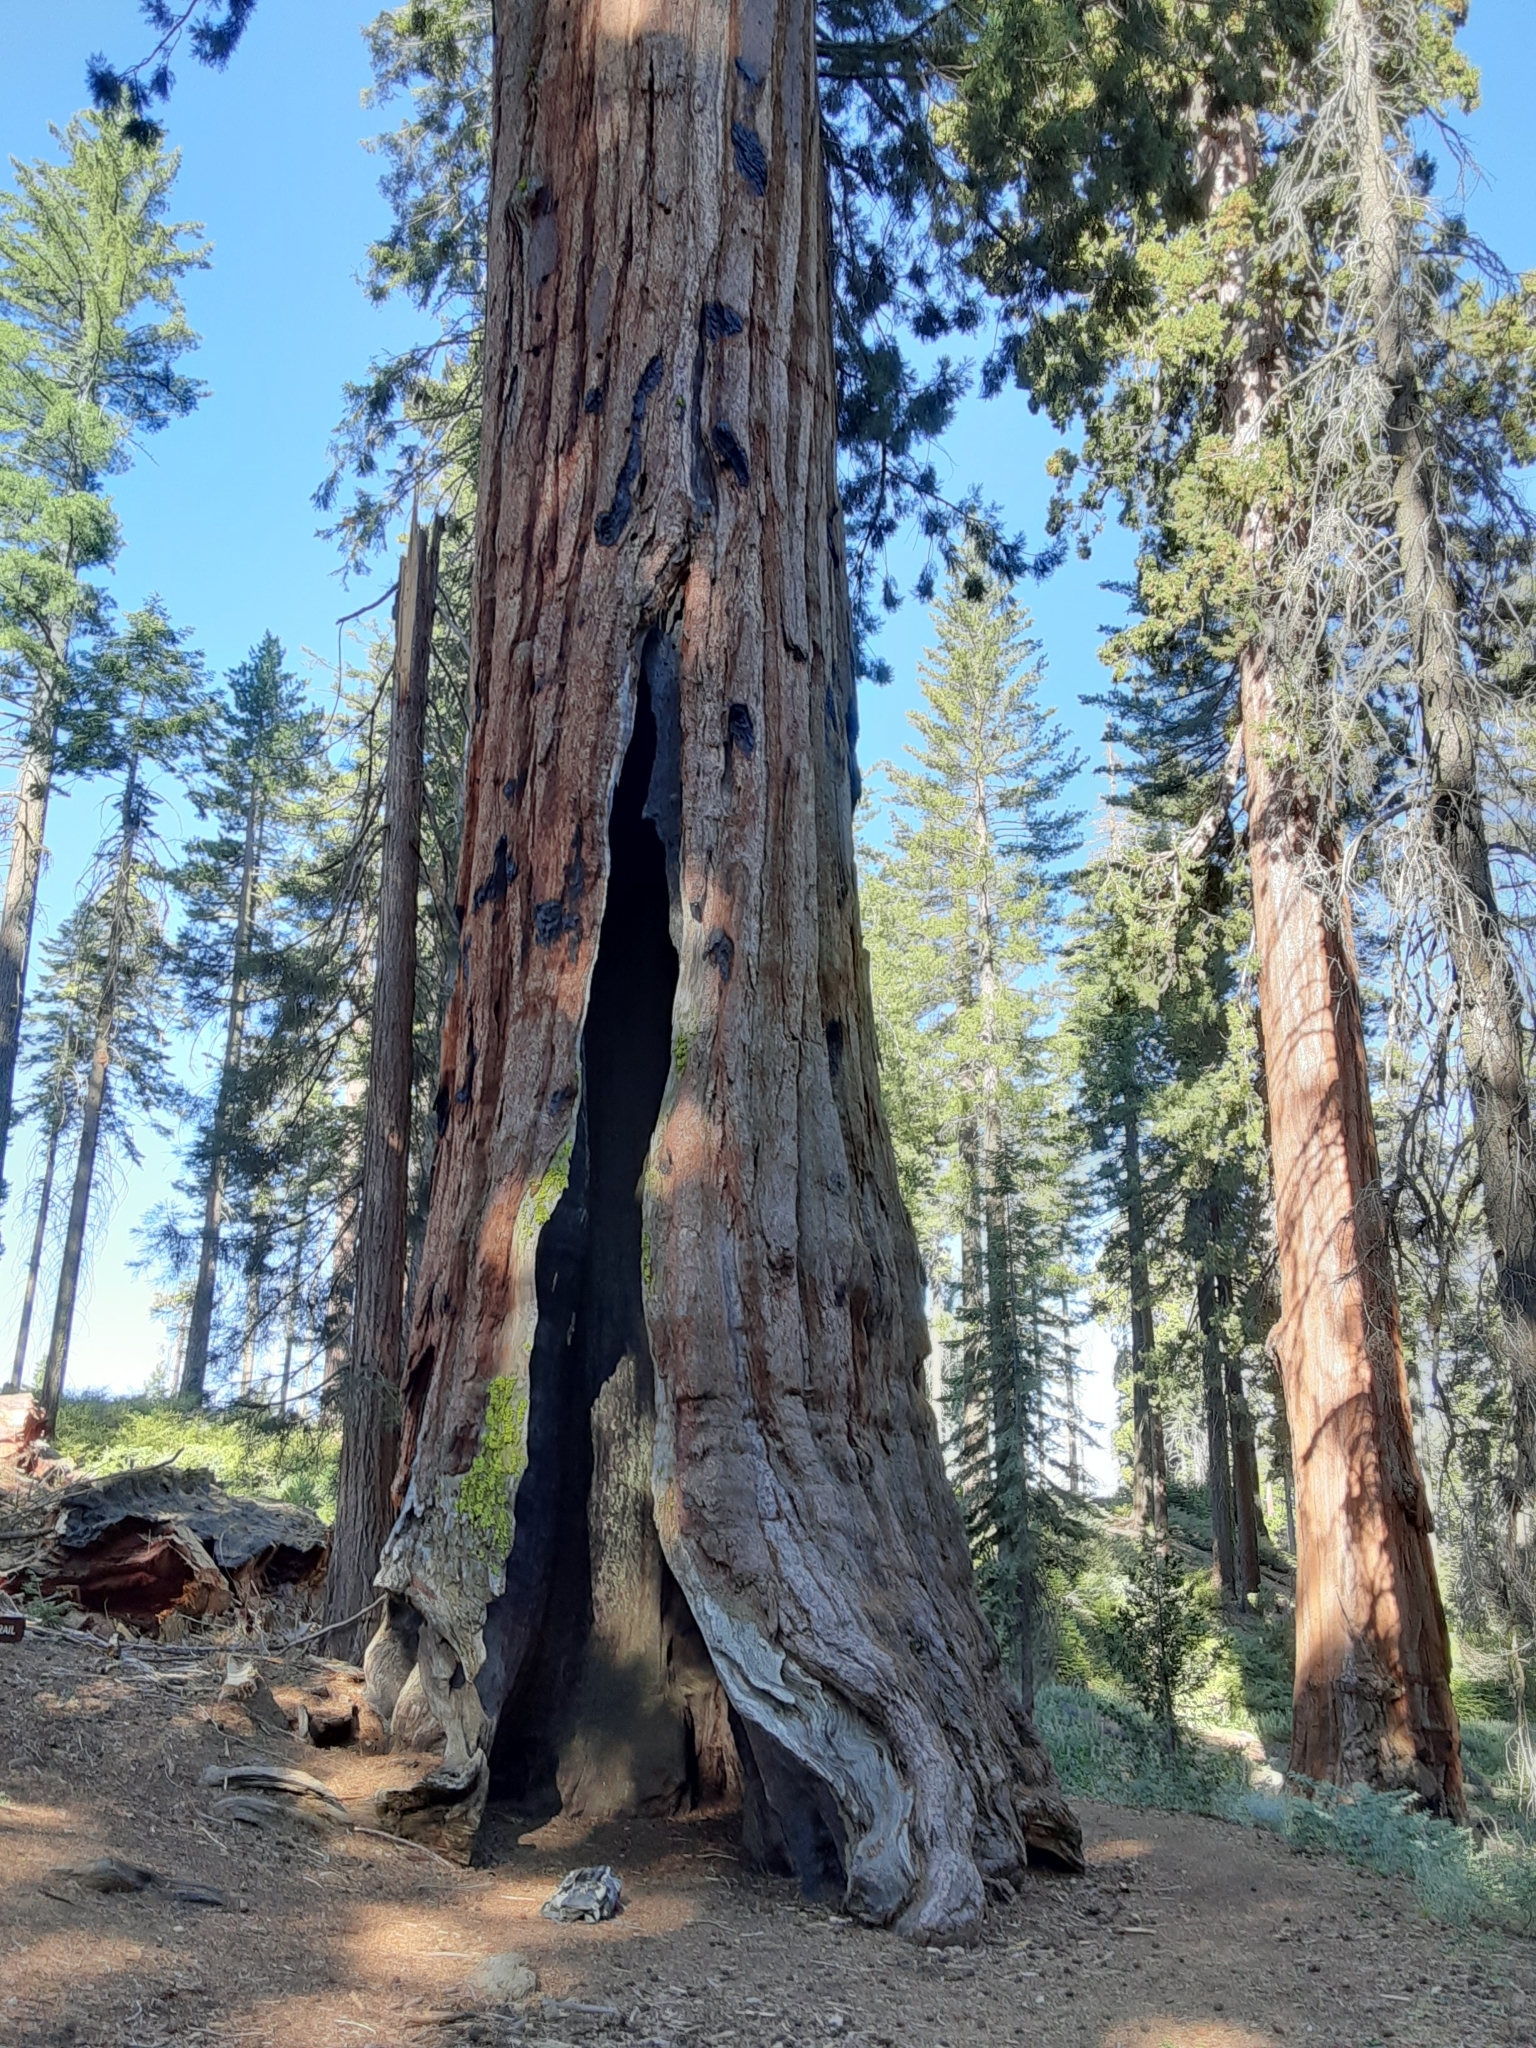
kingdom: Plantae
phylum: Tracheophyta
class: Pinopsida
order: Pinales
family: Cupressaceae
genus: Sequoiadendron
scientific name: Sequoiadendron giganteum
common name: Wellingtonia
